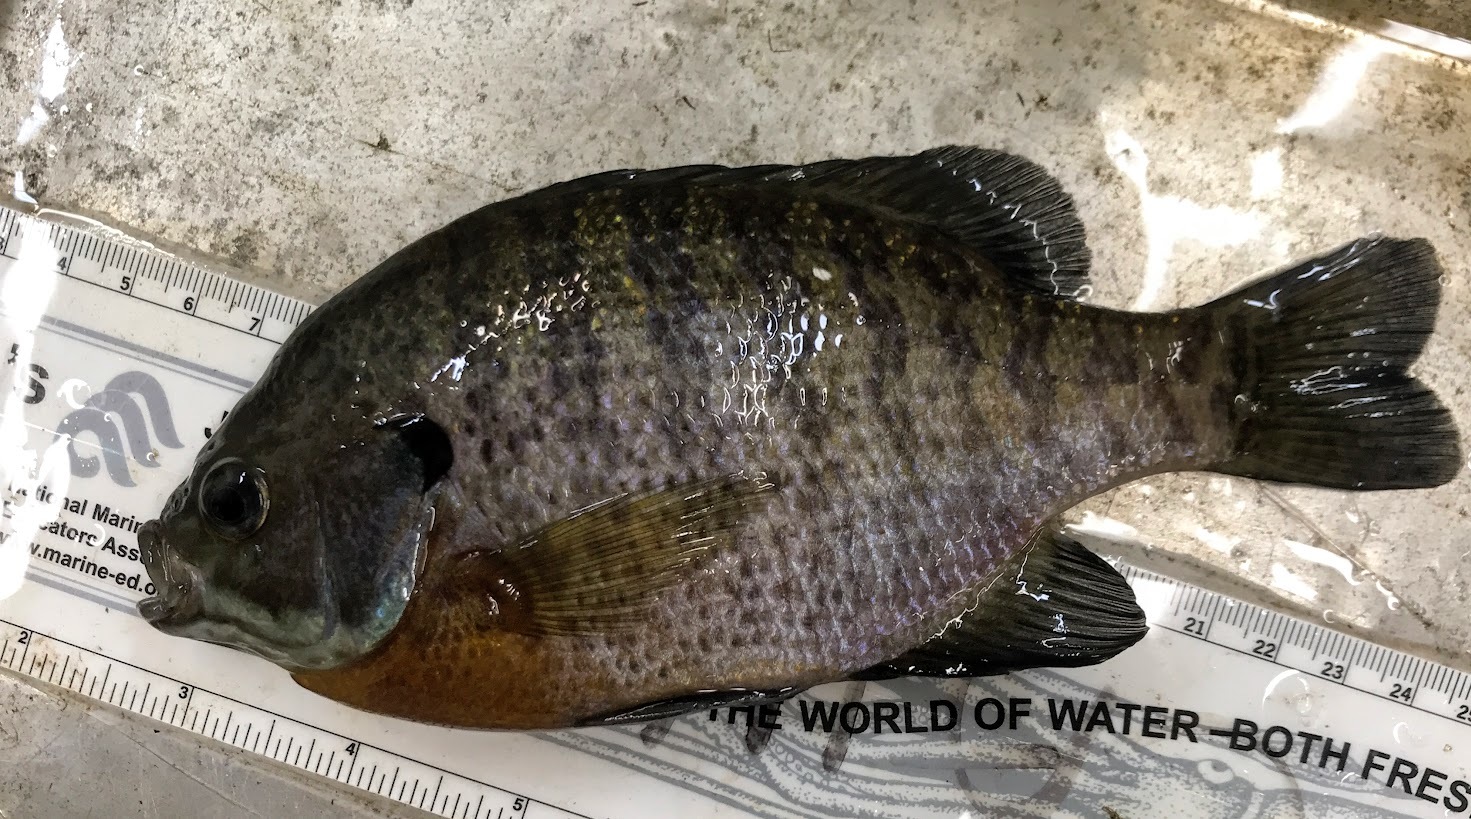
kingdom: Animalia
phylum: Chordata
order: Perciformes
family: Centrarchidae
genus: Lepomis
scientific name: Lepomis macrochirus
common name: Bluegill
